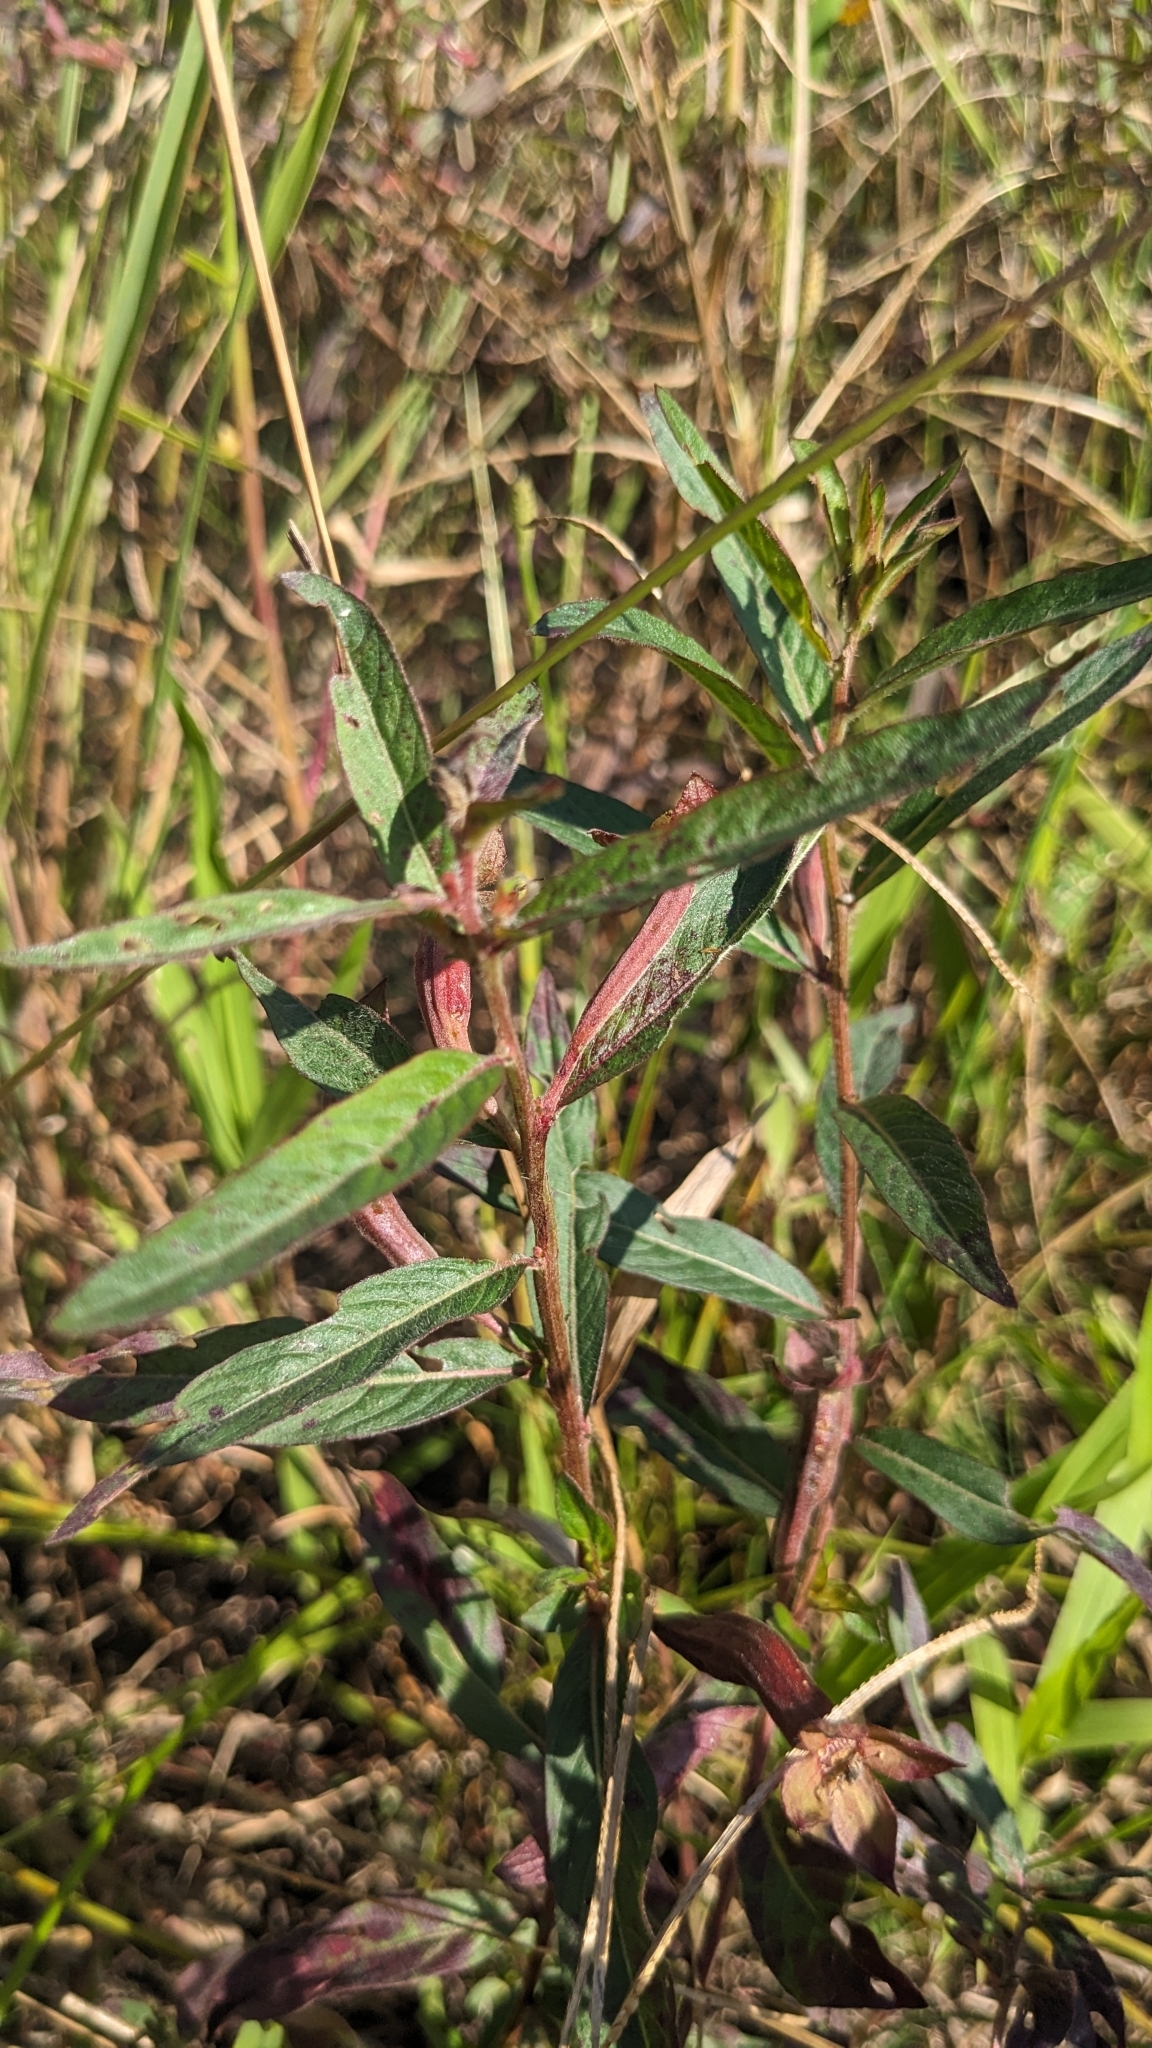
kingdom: Plantae
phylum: Tracheophyta
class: Magnoliopsida
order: Myrtales
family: Onagraceae
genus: Ludwigia
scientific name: Ludwigia octovalvis
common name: Water-primrose
